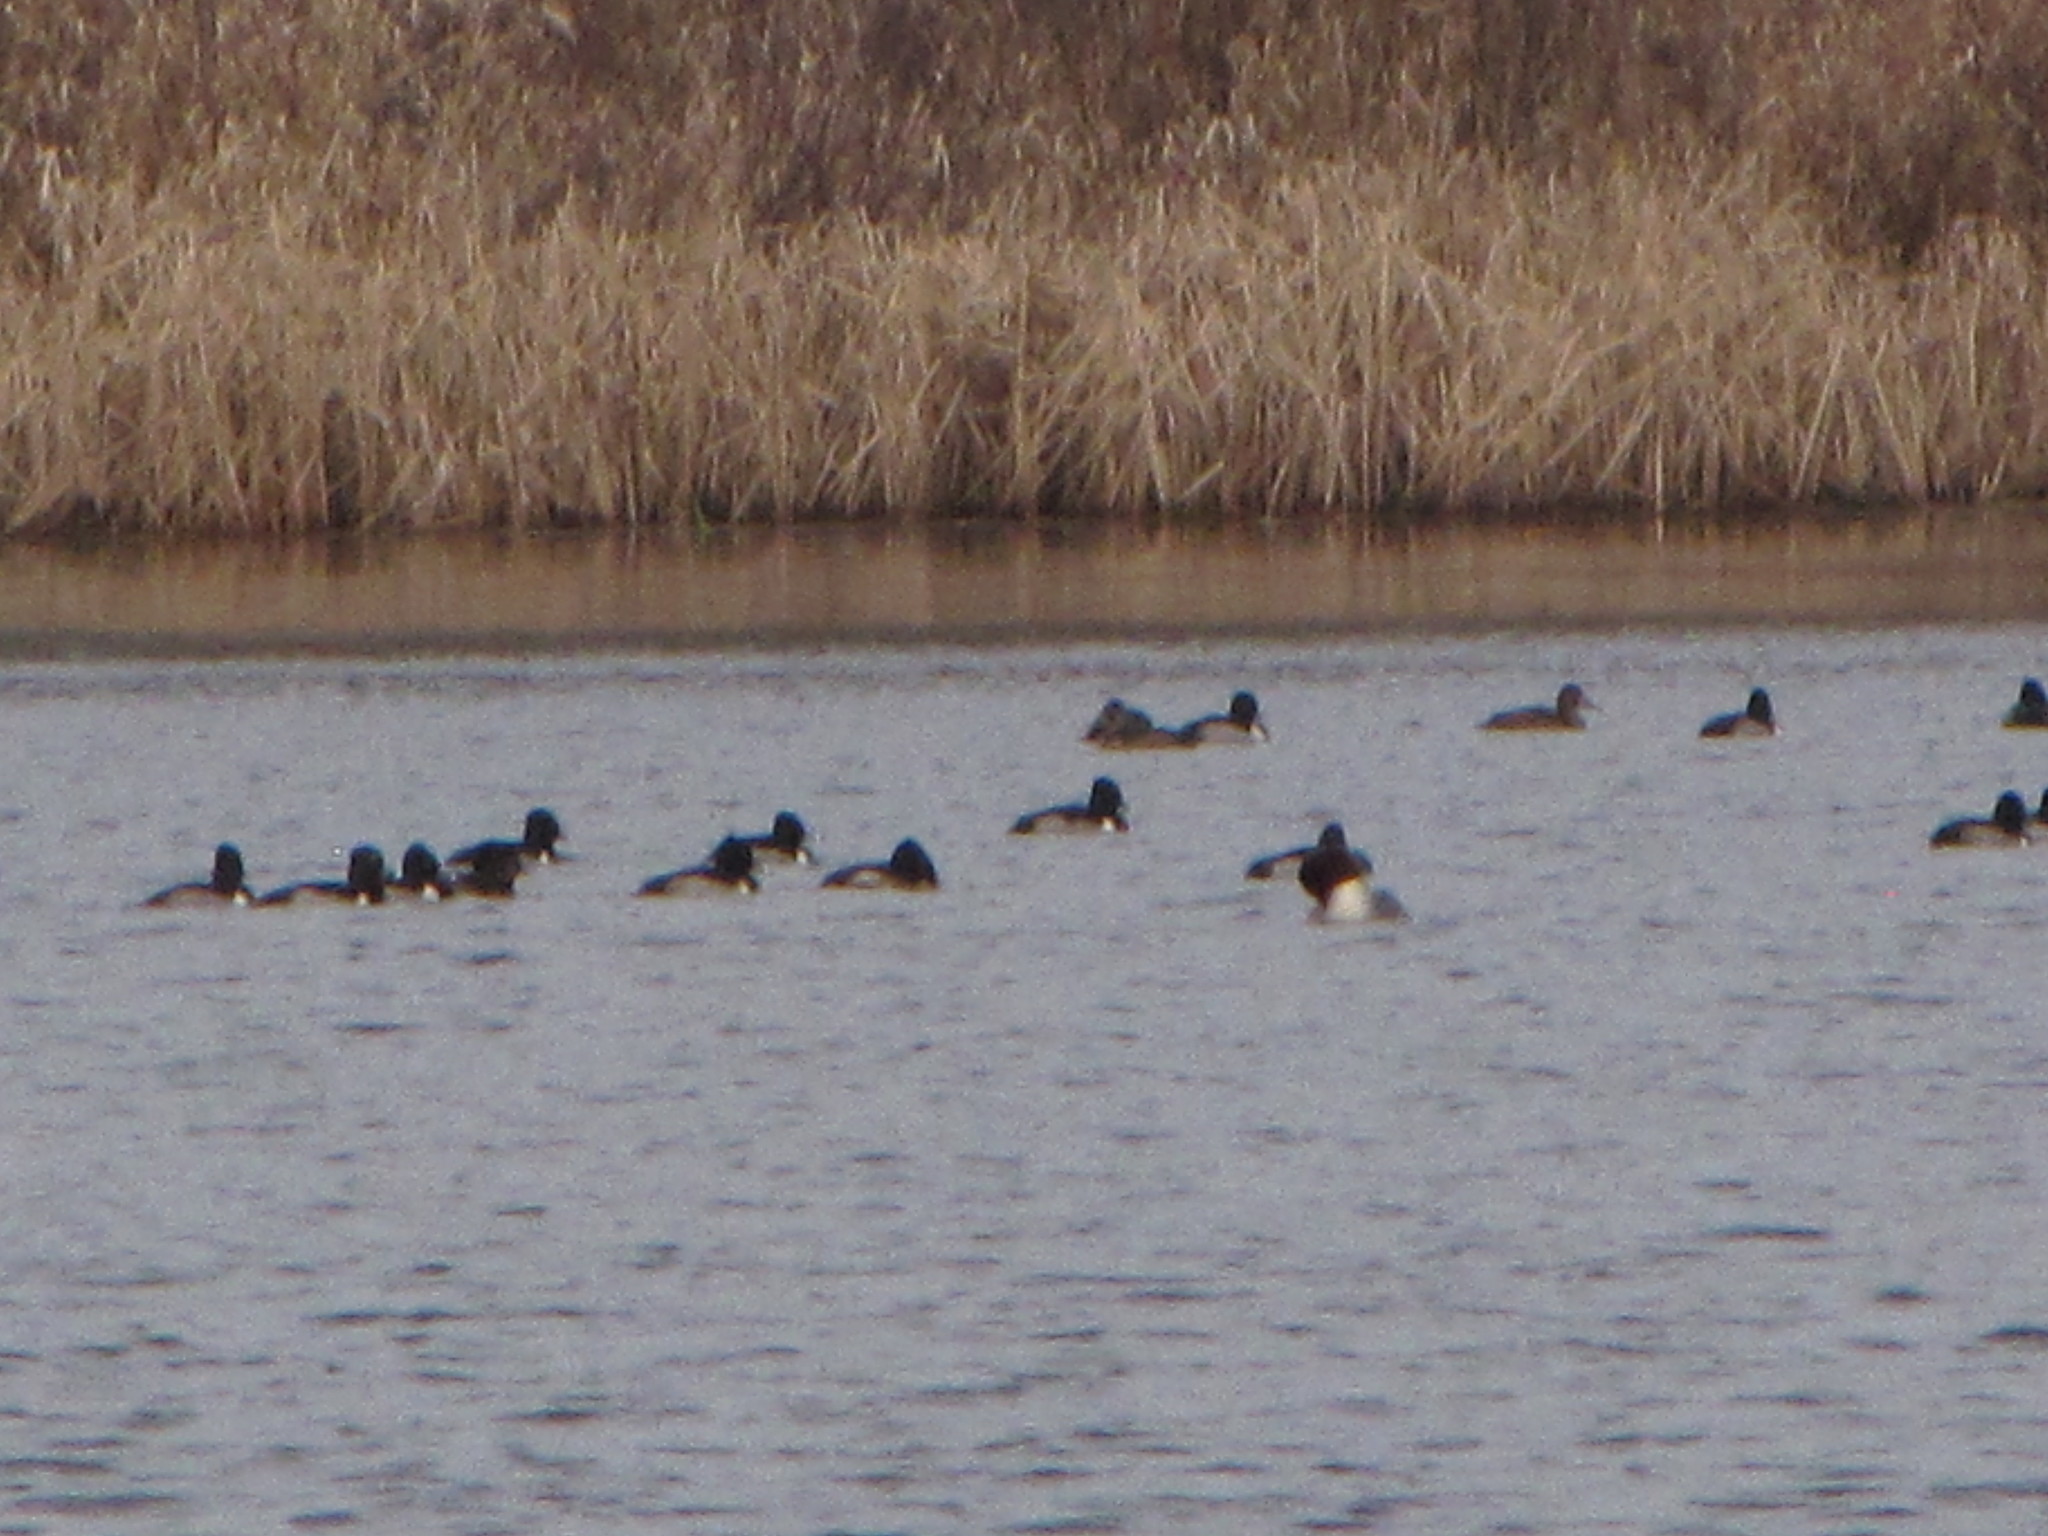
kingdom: Animalia
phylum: Chordata
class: Aves
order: Anseriformes
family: Anatidae
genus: Aythya
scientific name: Aythya collaris
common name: Ring-necked duck
